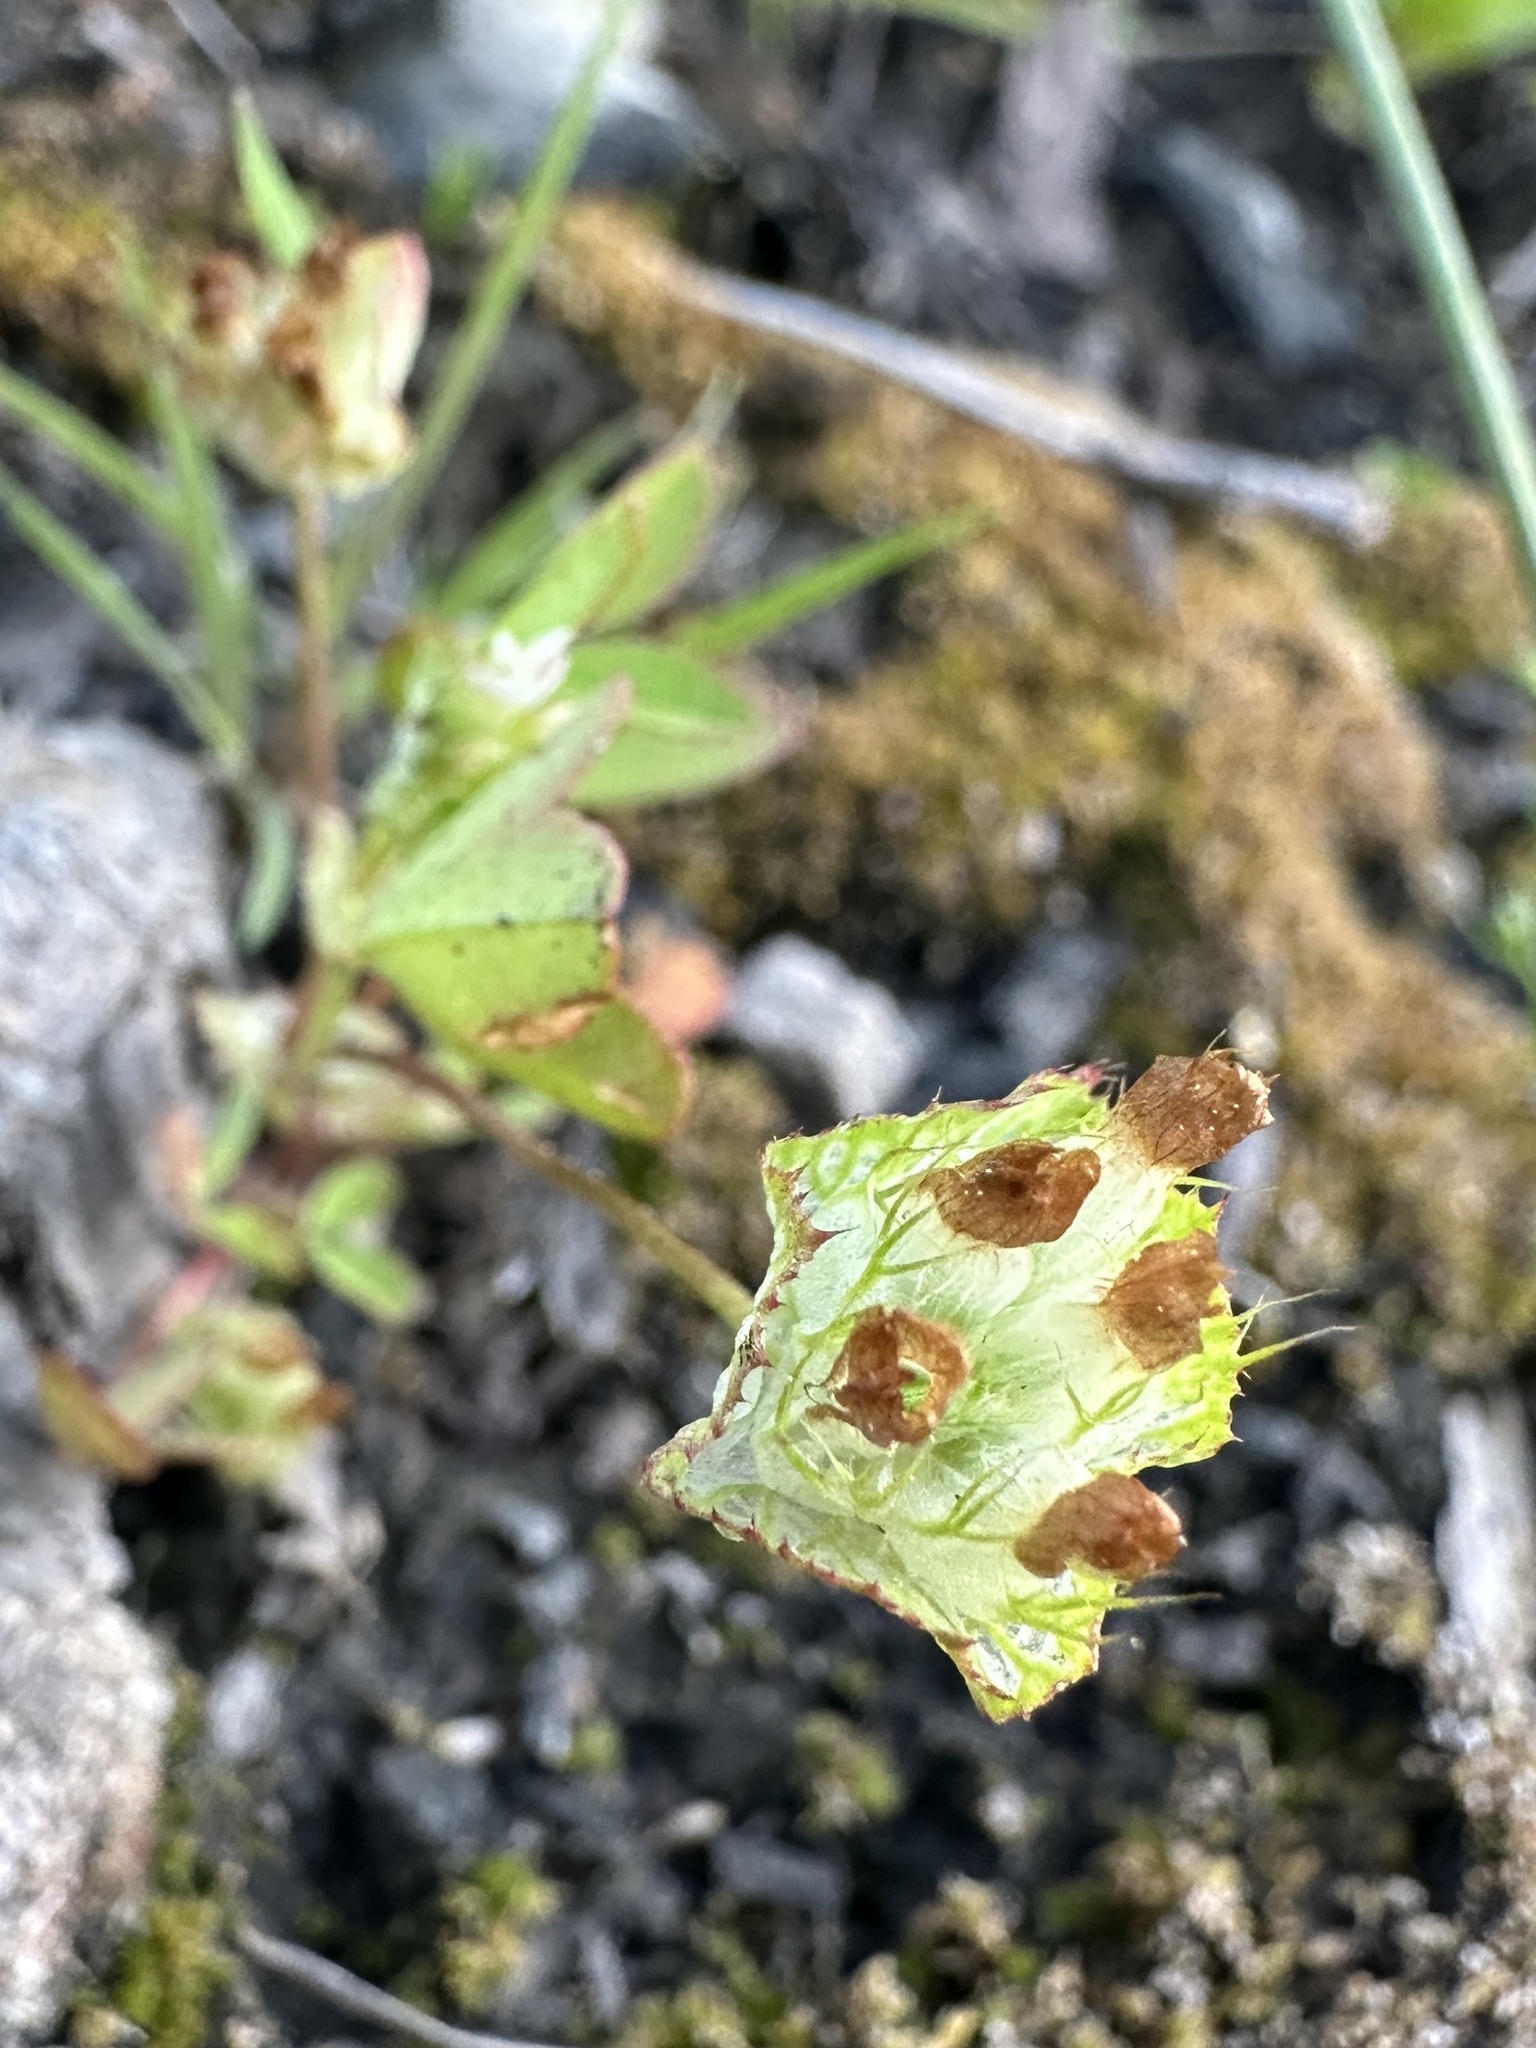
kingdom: Plantae
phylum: Tracheophyta
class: Magnoliopsida
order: Fabales
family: Fabaceae
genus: Trifolium
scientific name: Trifolium cyathiferum
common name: Bowl clover
